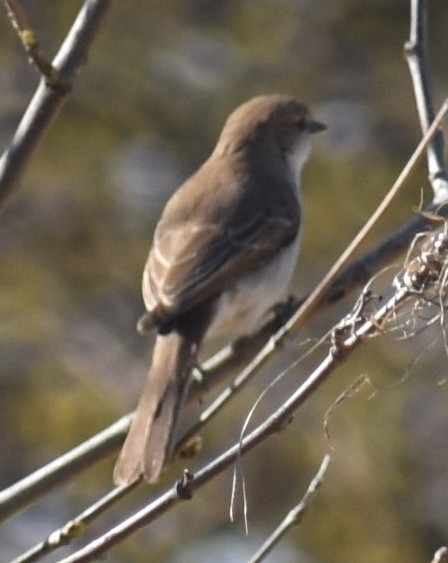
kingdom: Animalia
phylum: Chordata
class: Aves
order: Passeriformes
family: Muscicapidae
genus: Bradornis
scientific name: Bradornis mariquensis
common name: Marico flycatcher
